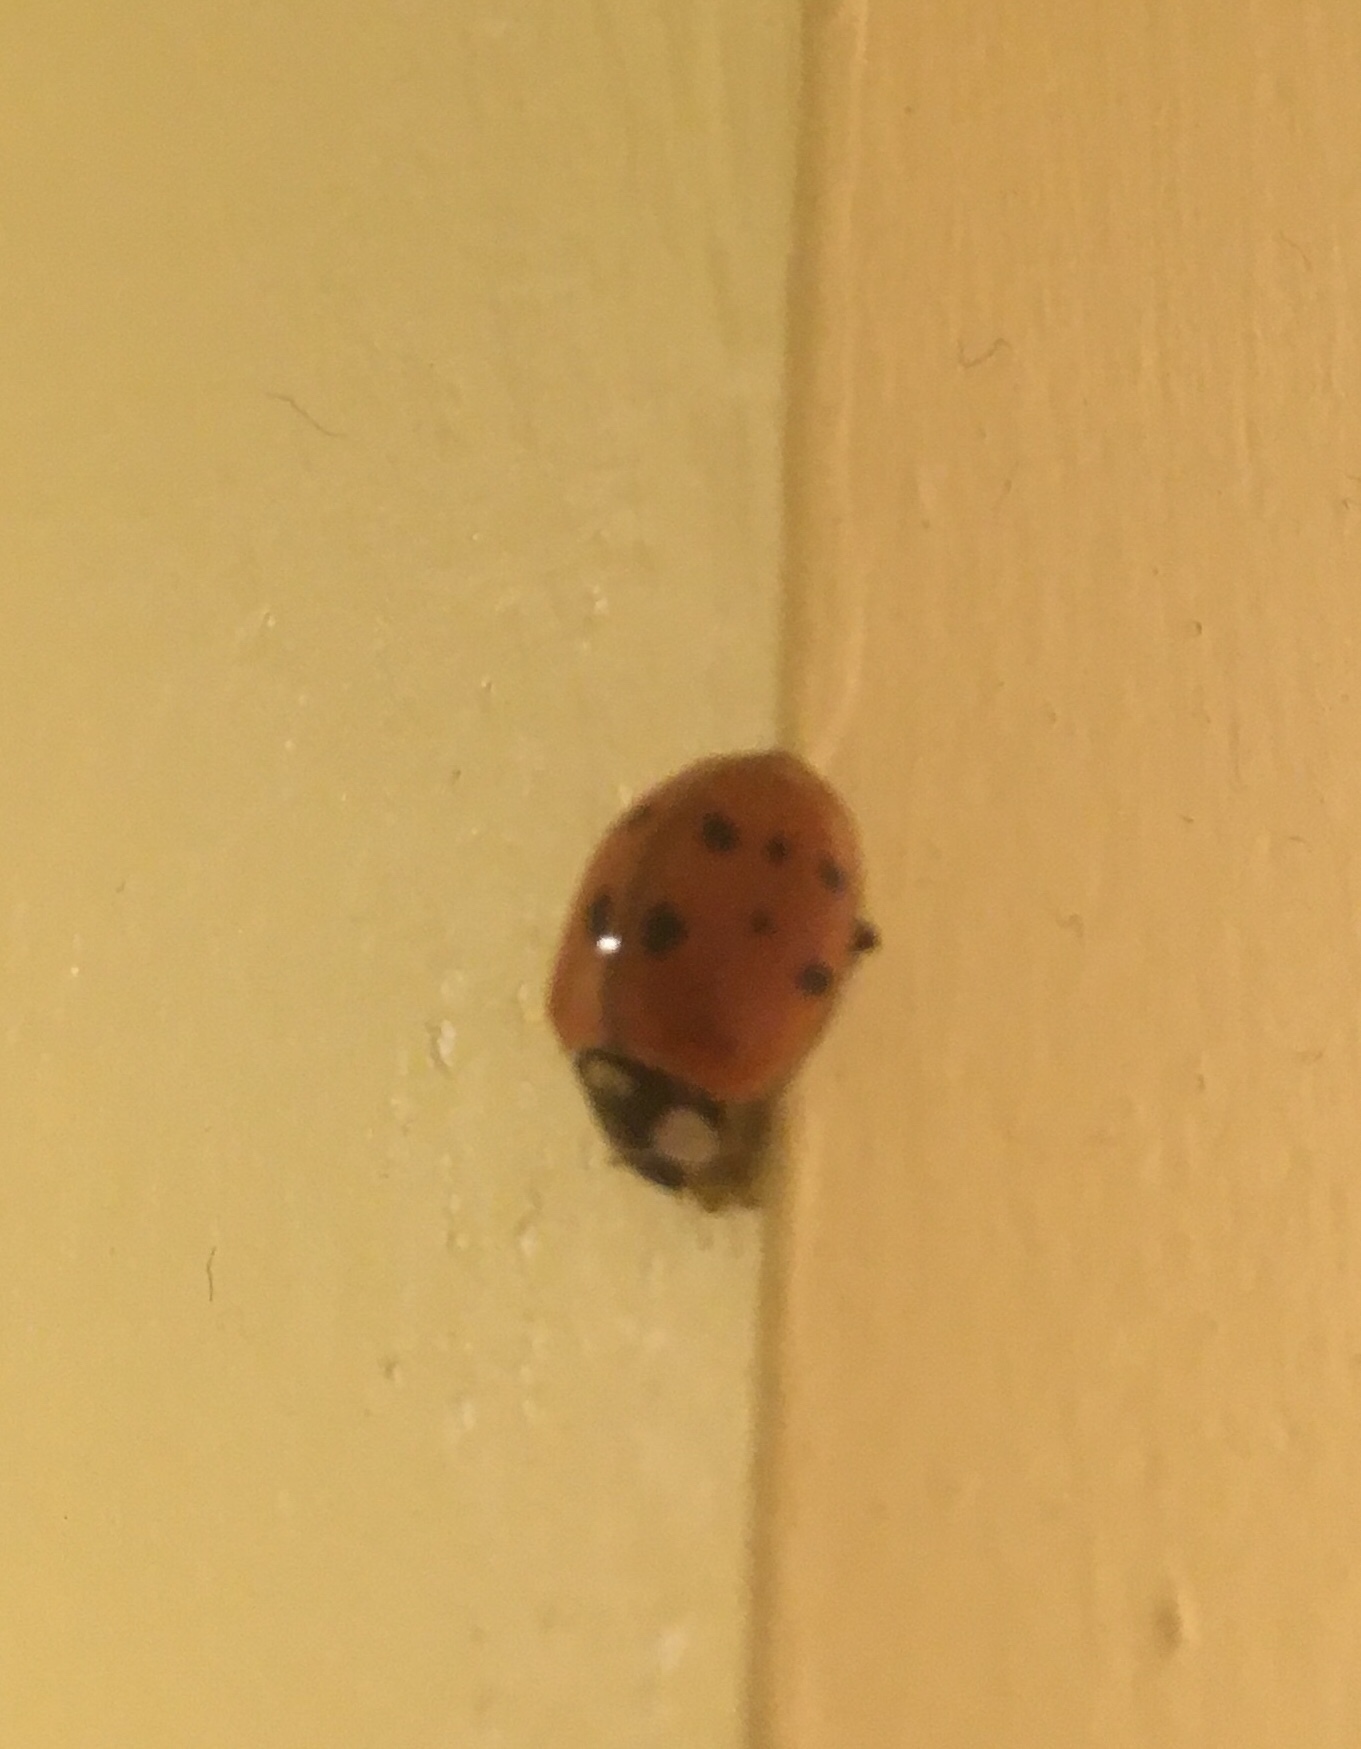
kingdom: Animalia
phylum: Arthropoda
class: Insecta
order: Coleoptera
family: Coccinellidae
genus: Harmonia
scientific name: Harmonia axyridis
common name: Harlequin ladybird
